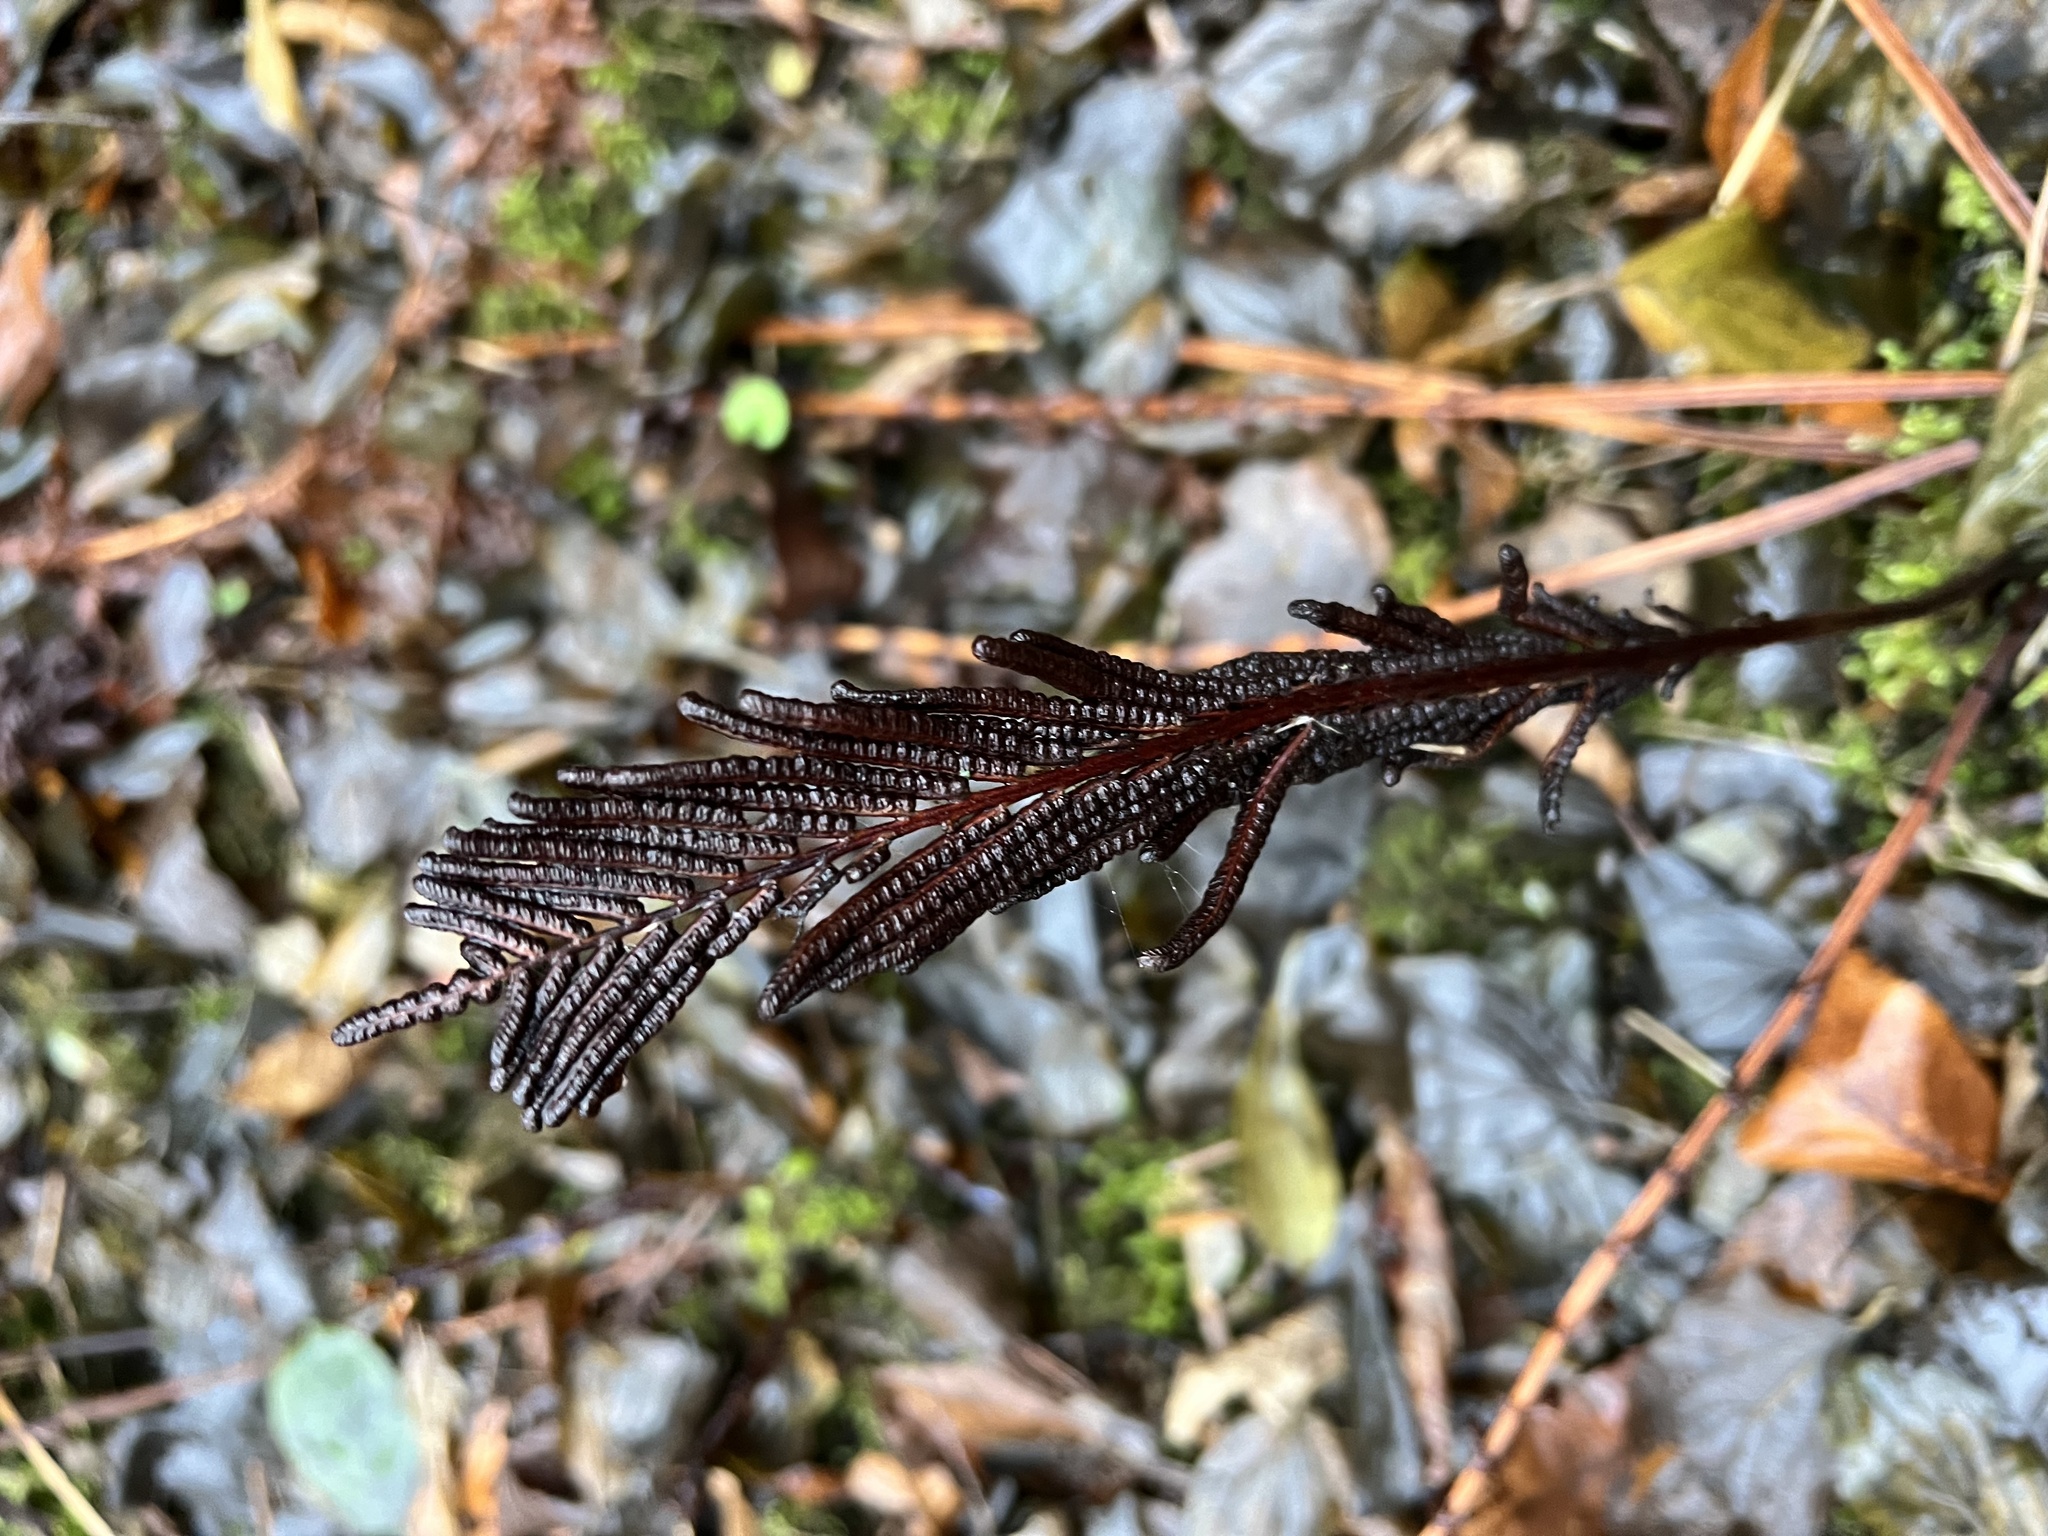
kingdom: Plantae
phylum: Tracheophyta
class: Polypodiopsida
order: Polypodiales
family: Onocleaceae
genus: Matteuccia
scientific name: Matteuccia struthiopteris
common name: Ostrich fern
